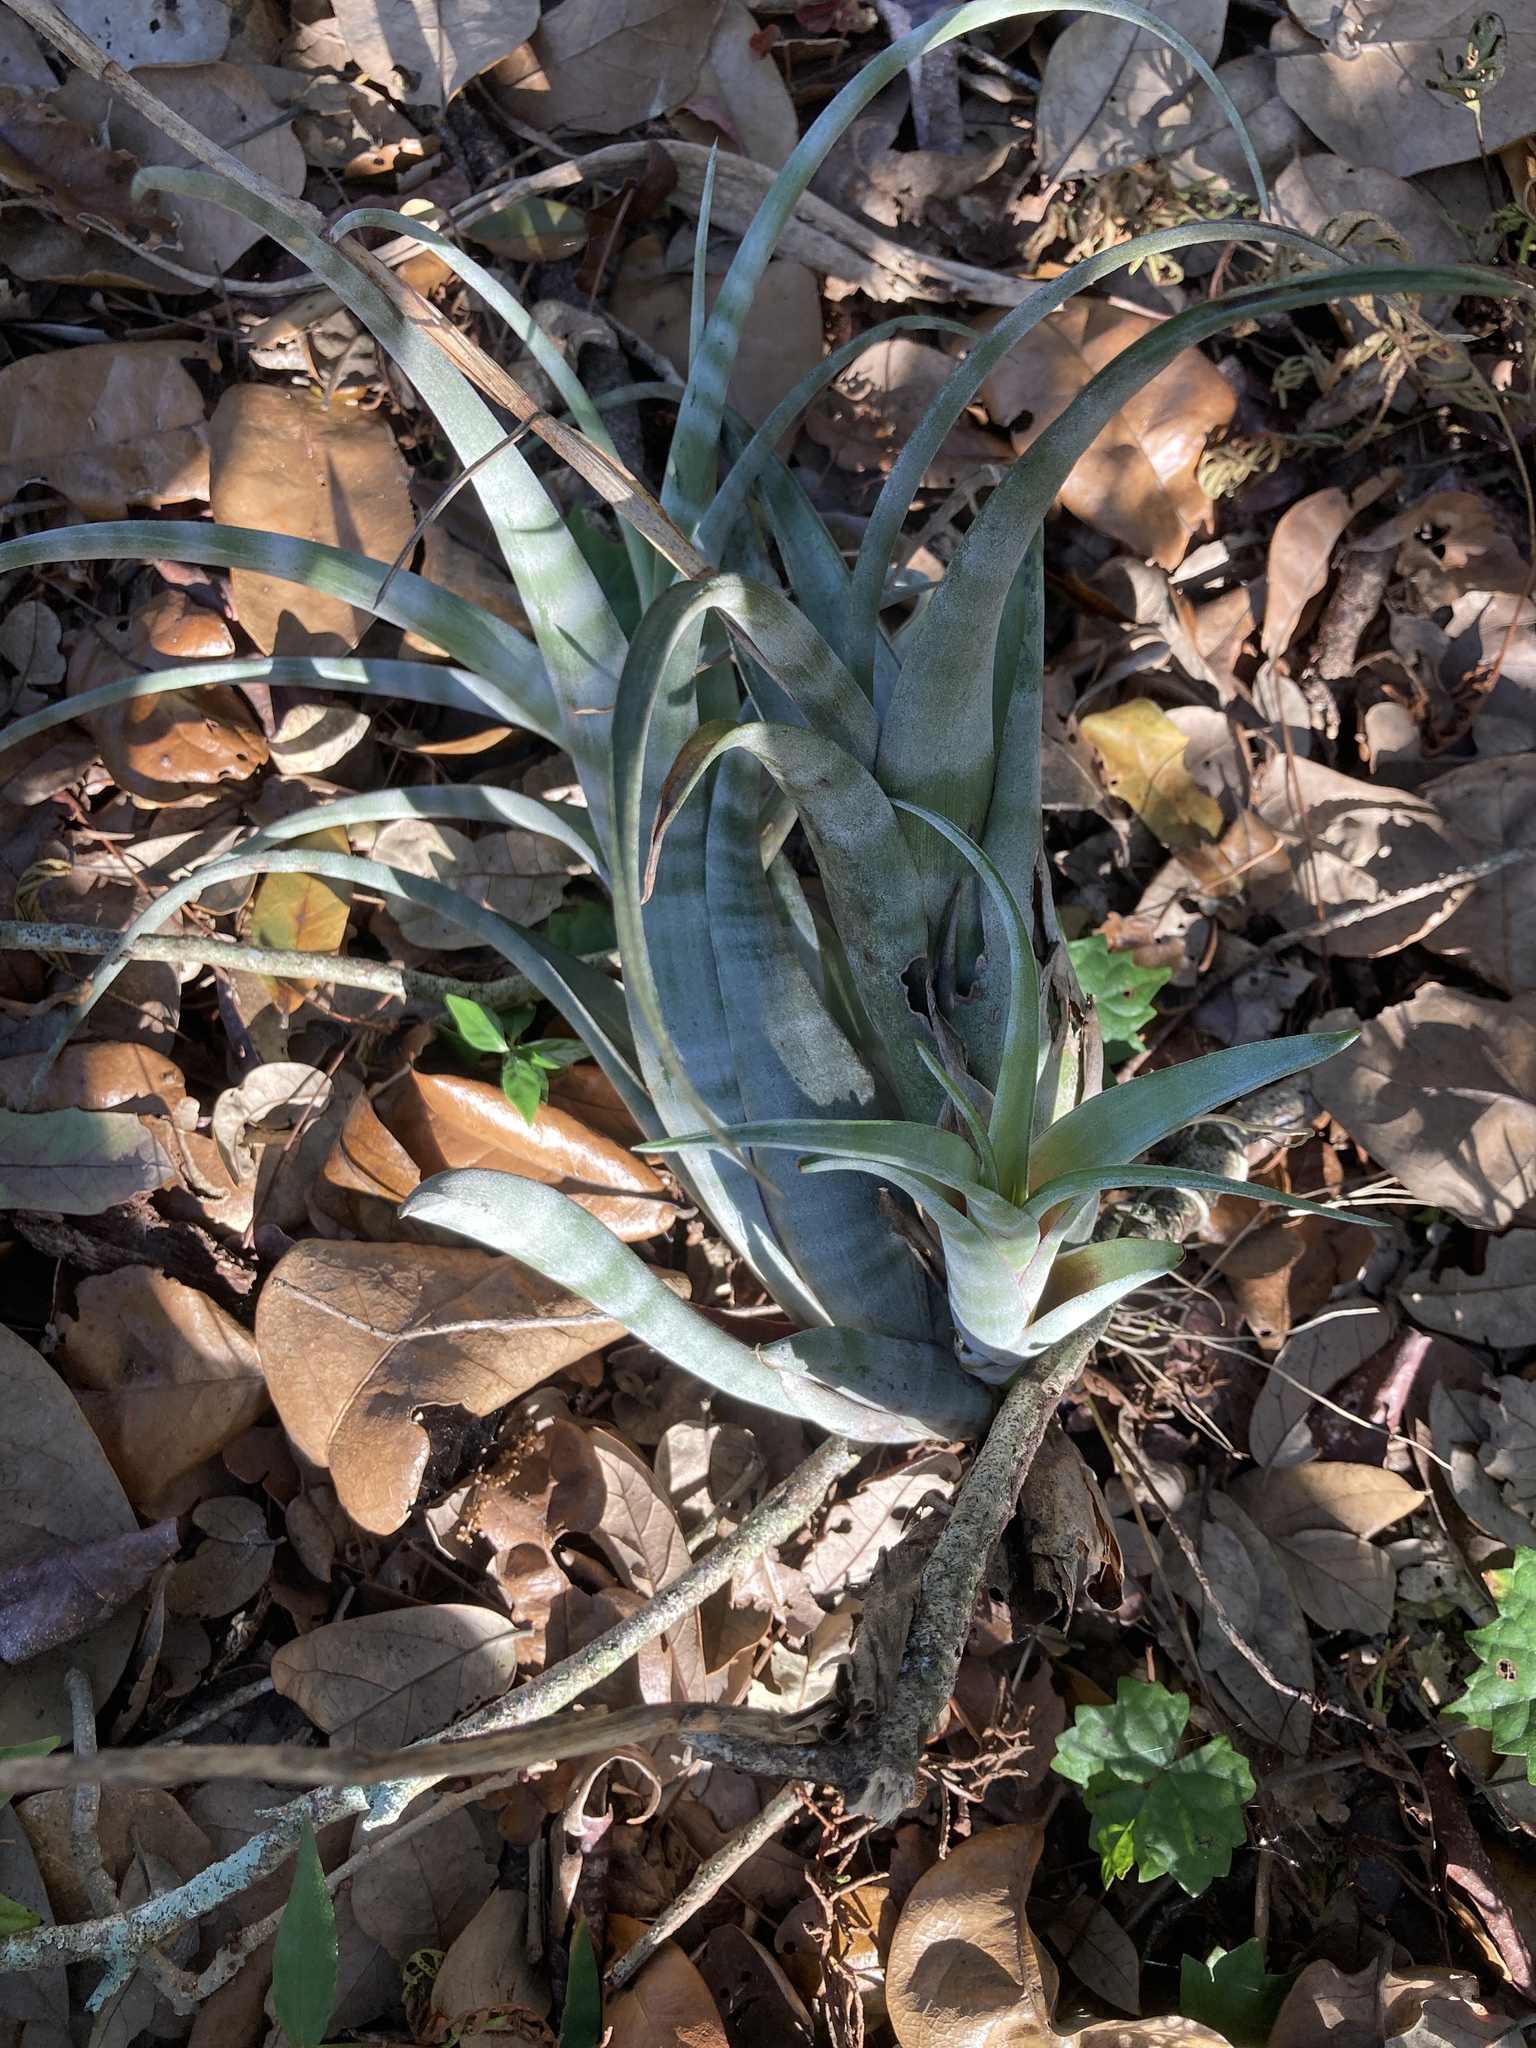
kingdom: Plantae
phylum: Tracheophyta
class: Liliopsida
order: Poales
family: Bromeliaceae
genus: Tillandsia
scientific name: Tillandsia flexuosa
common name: Banded airplant
